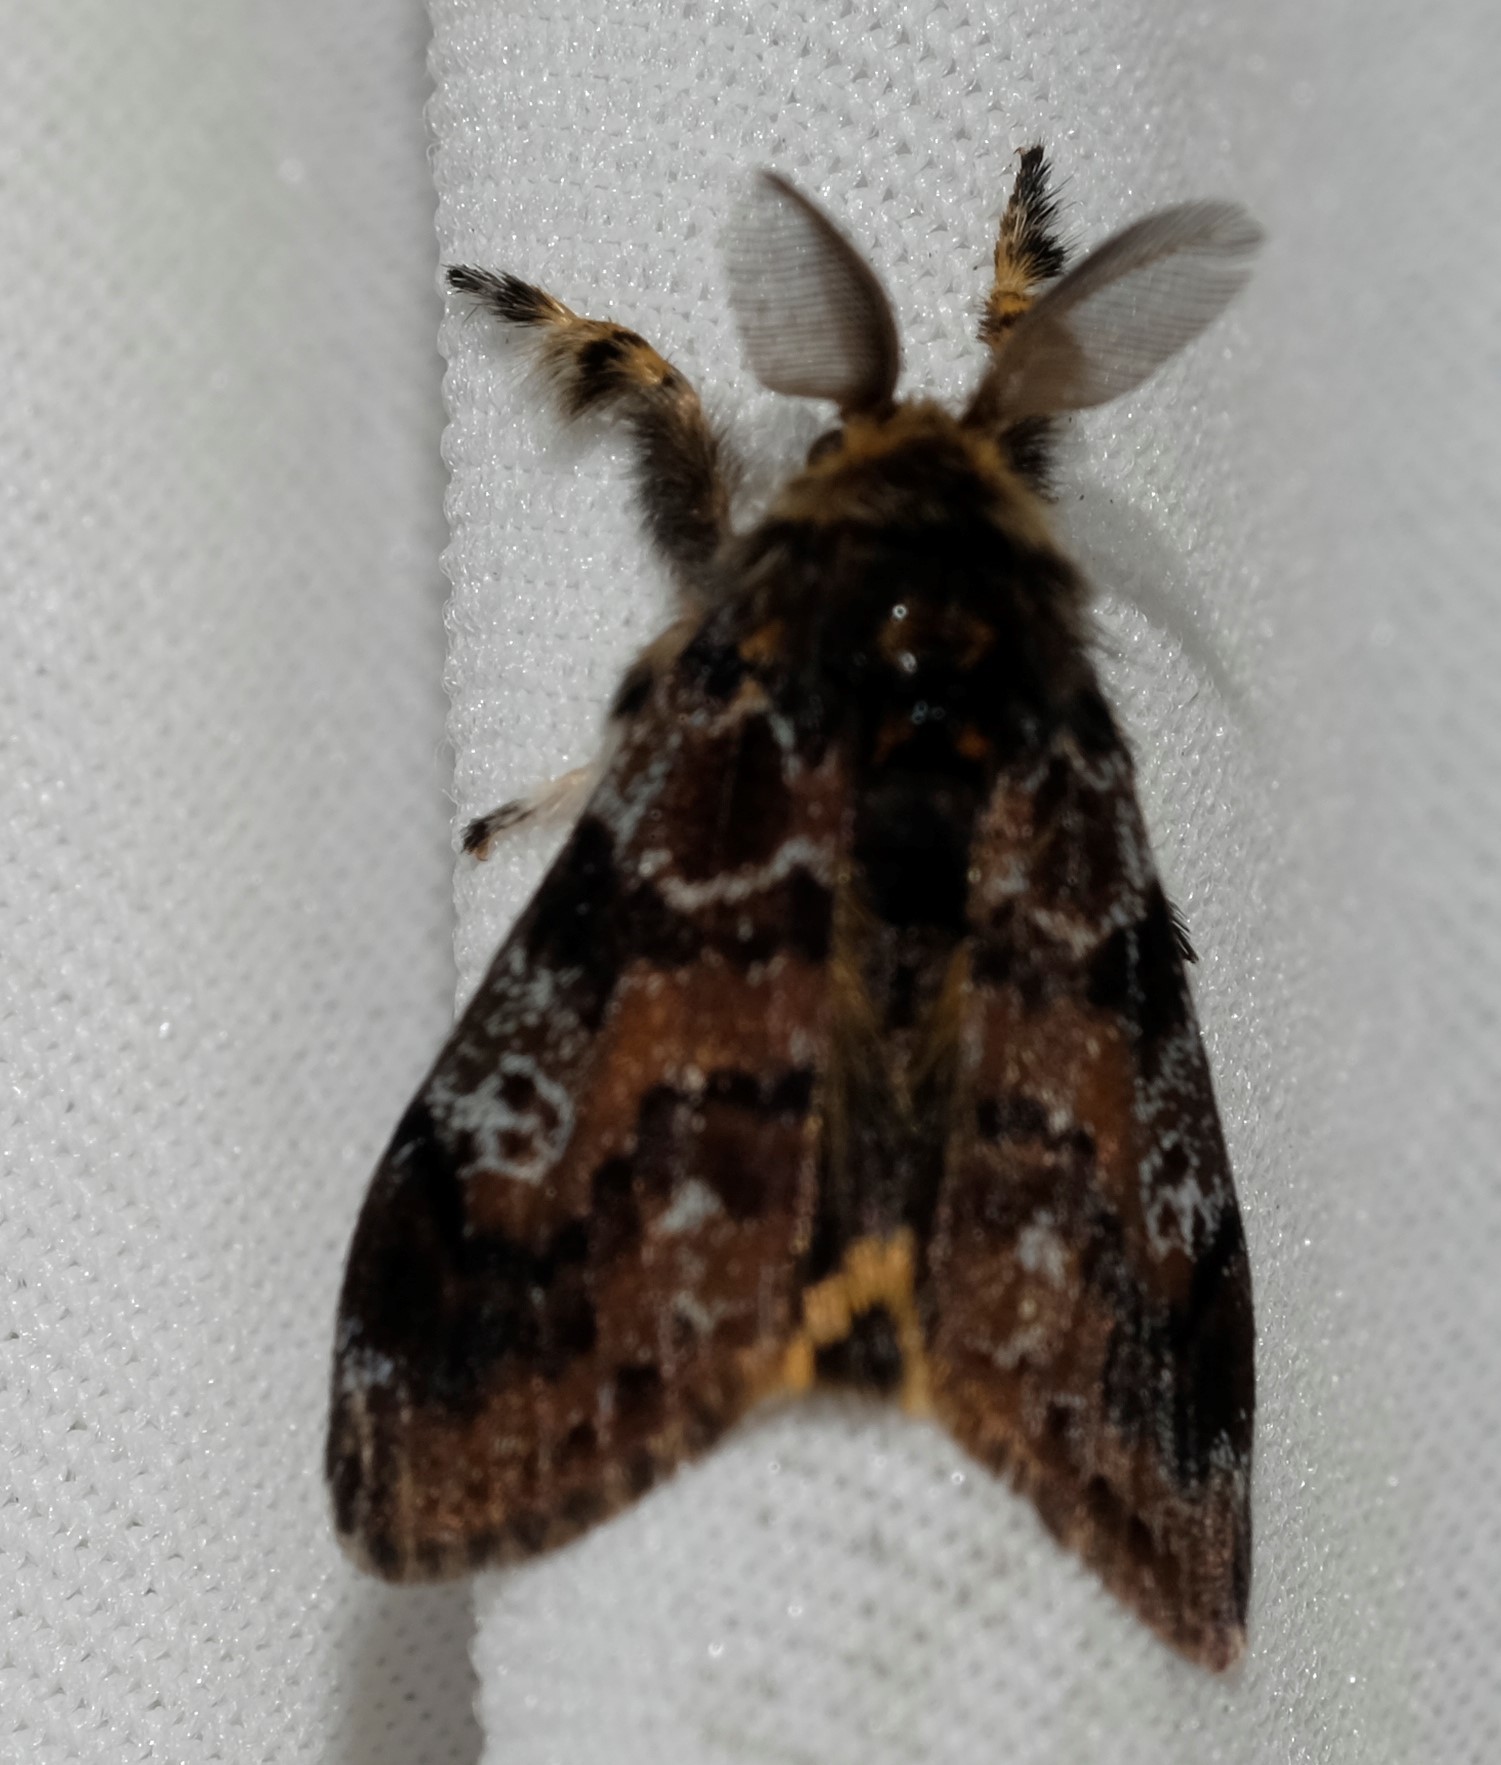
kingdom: Animalia
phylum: Arthropoda
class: Insecta
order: Lepidoptera
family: Erebidae
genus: Orgyia
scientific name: Orgyia
